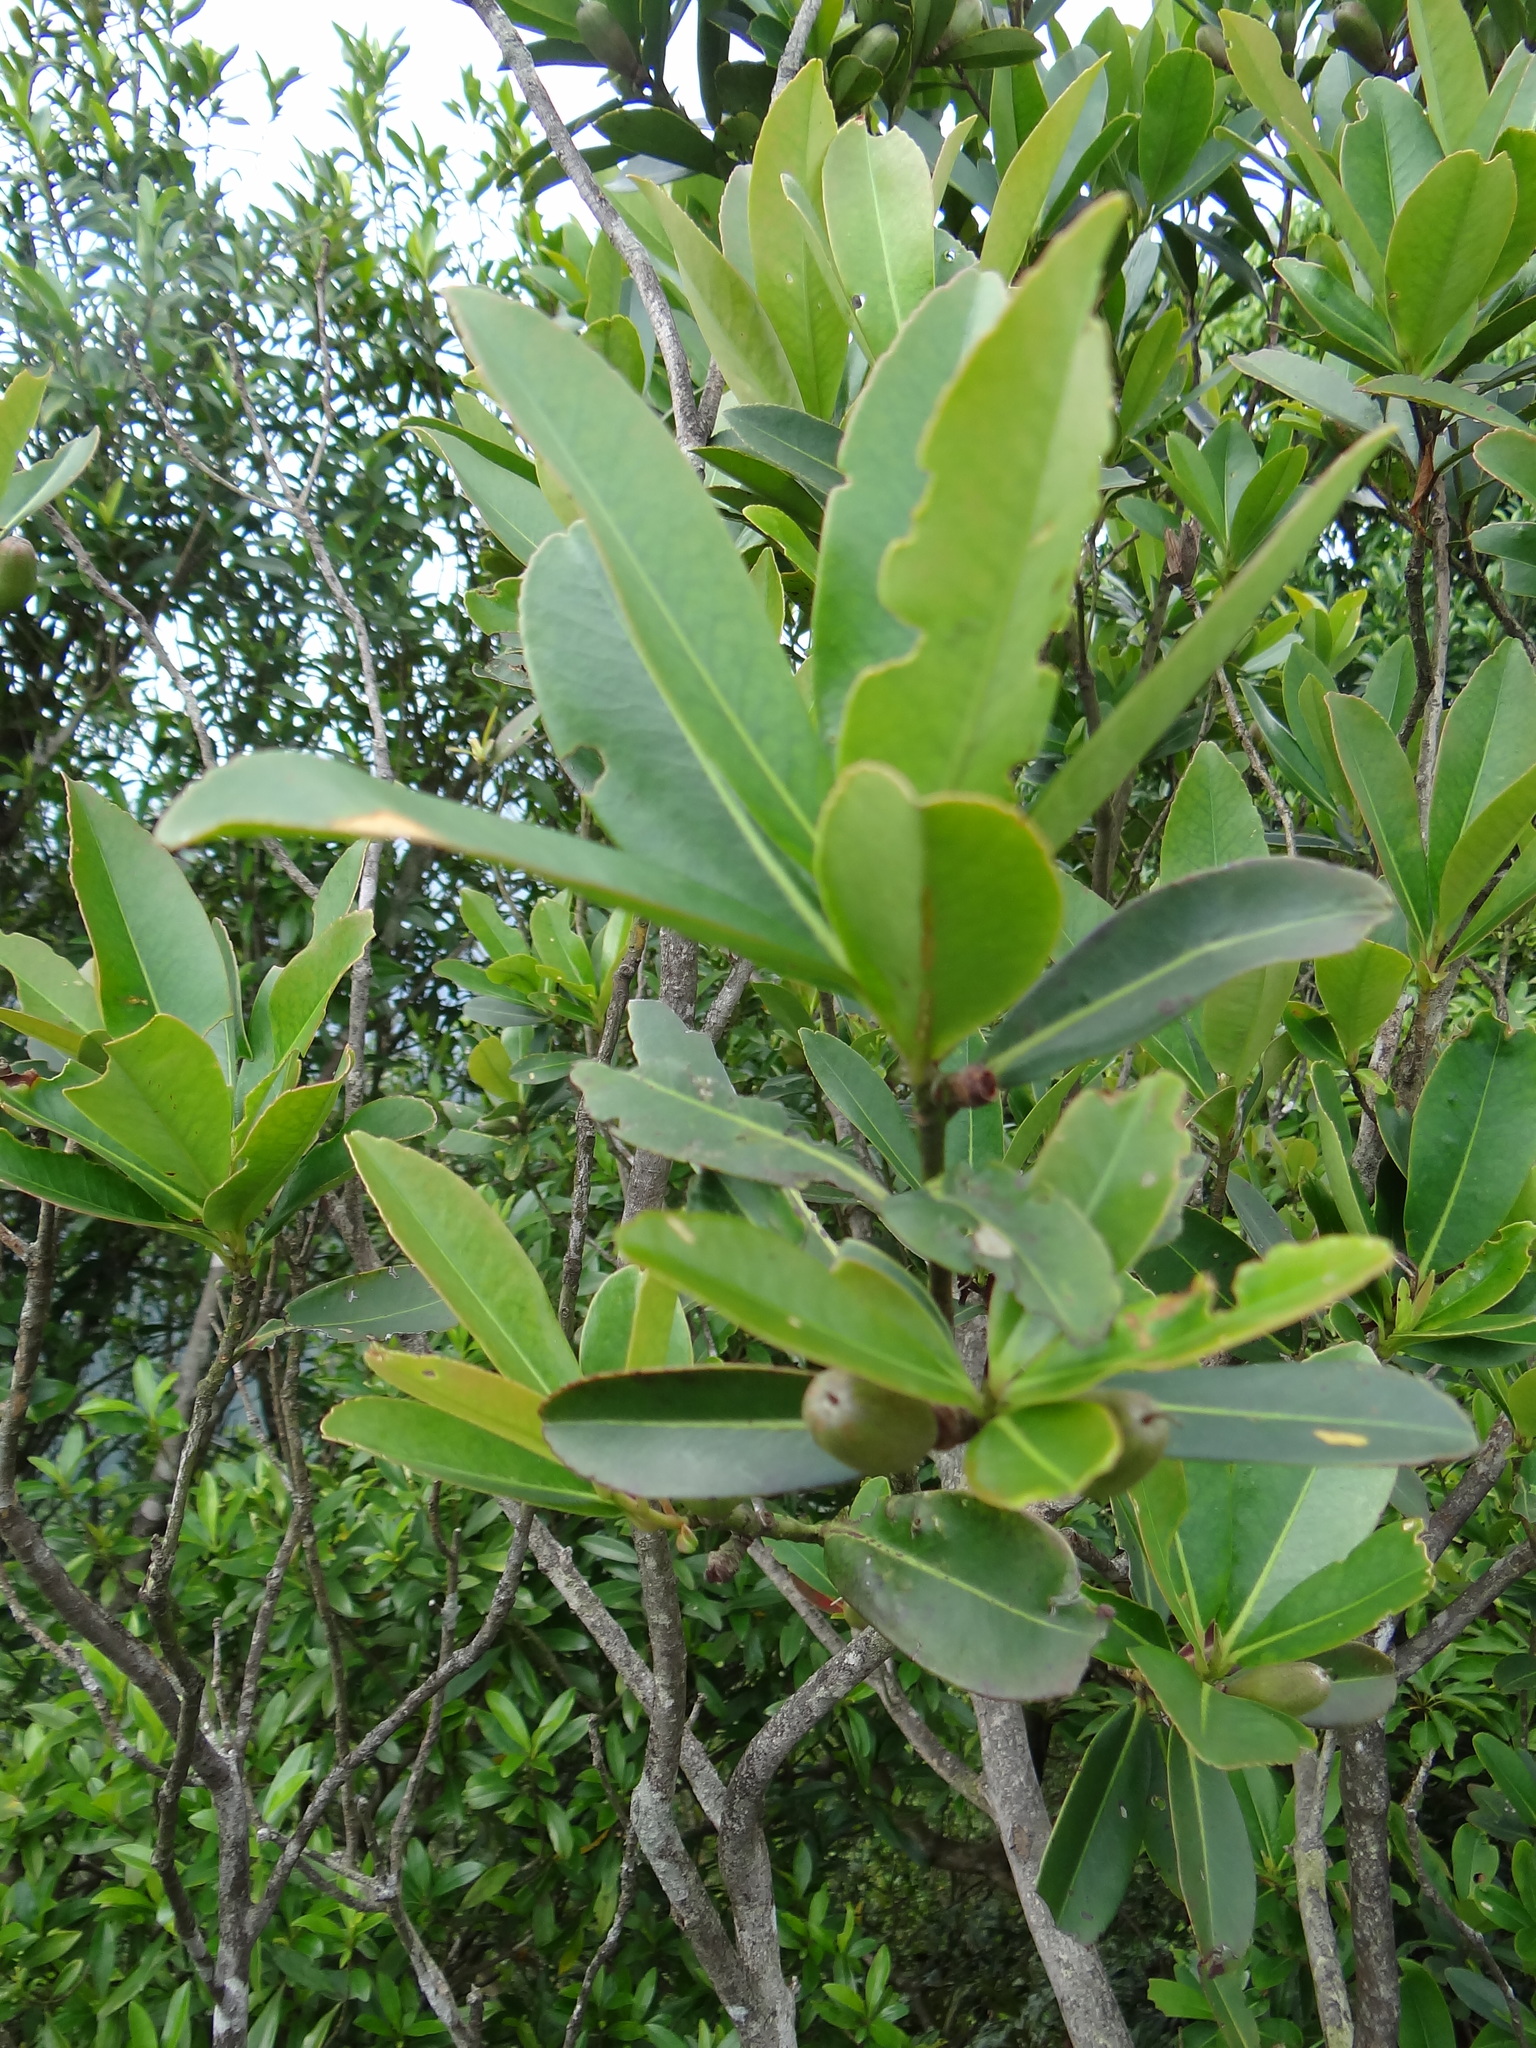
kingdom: Plantae
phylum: Tracheophyta
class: Magnoliopsida
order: Ericales
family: Theaceae
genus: Polyspora
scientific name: Polyspora axillaris
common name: Fried egg tree
